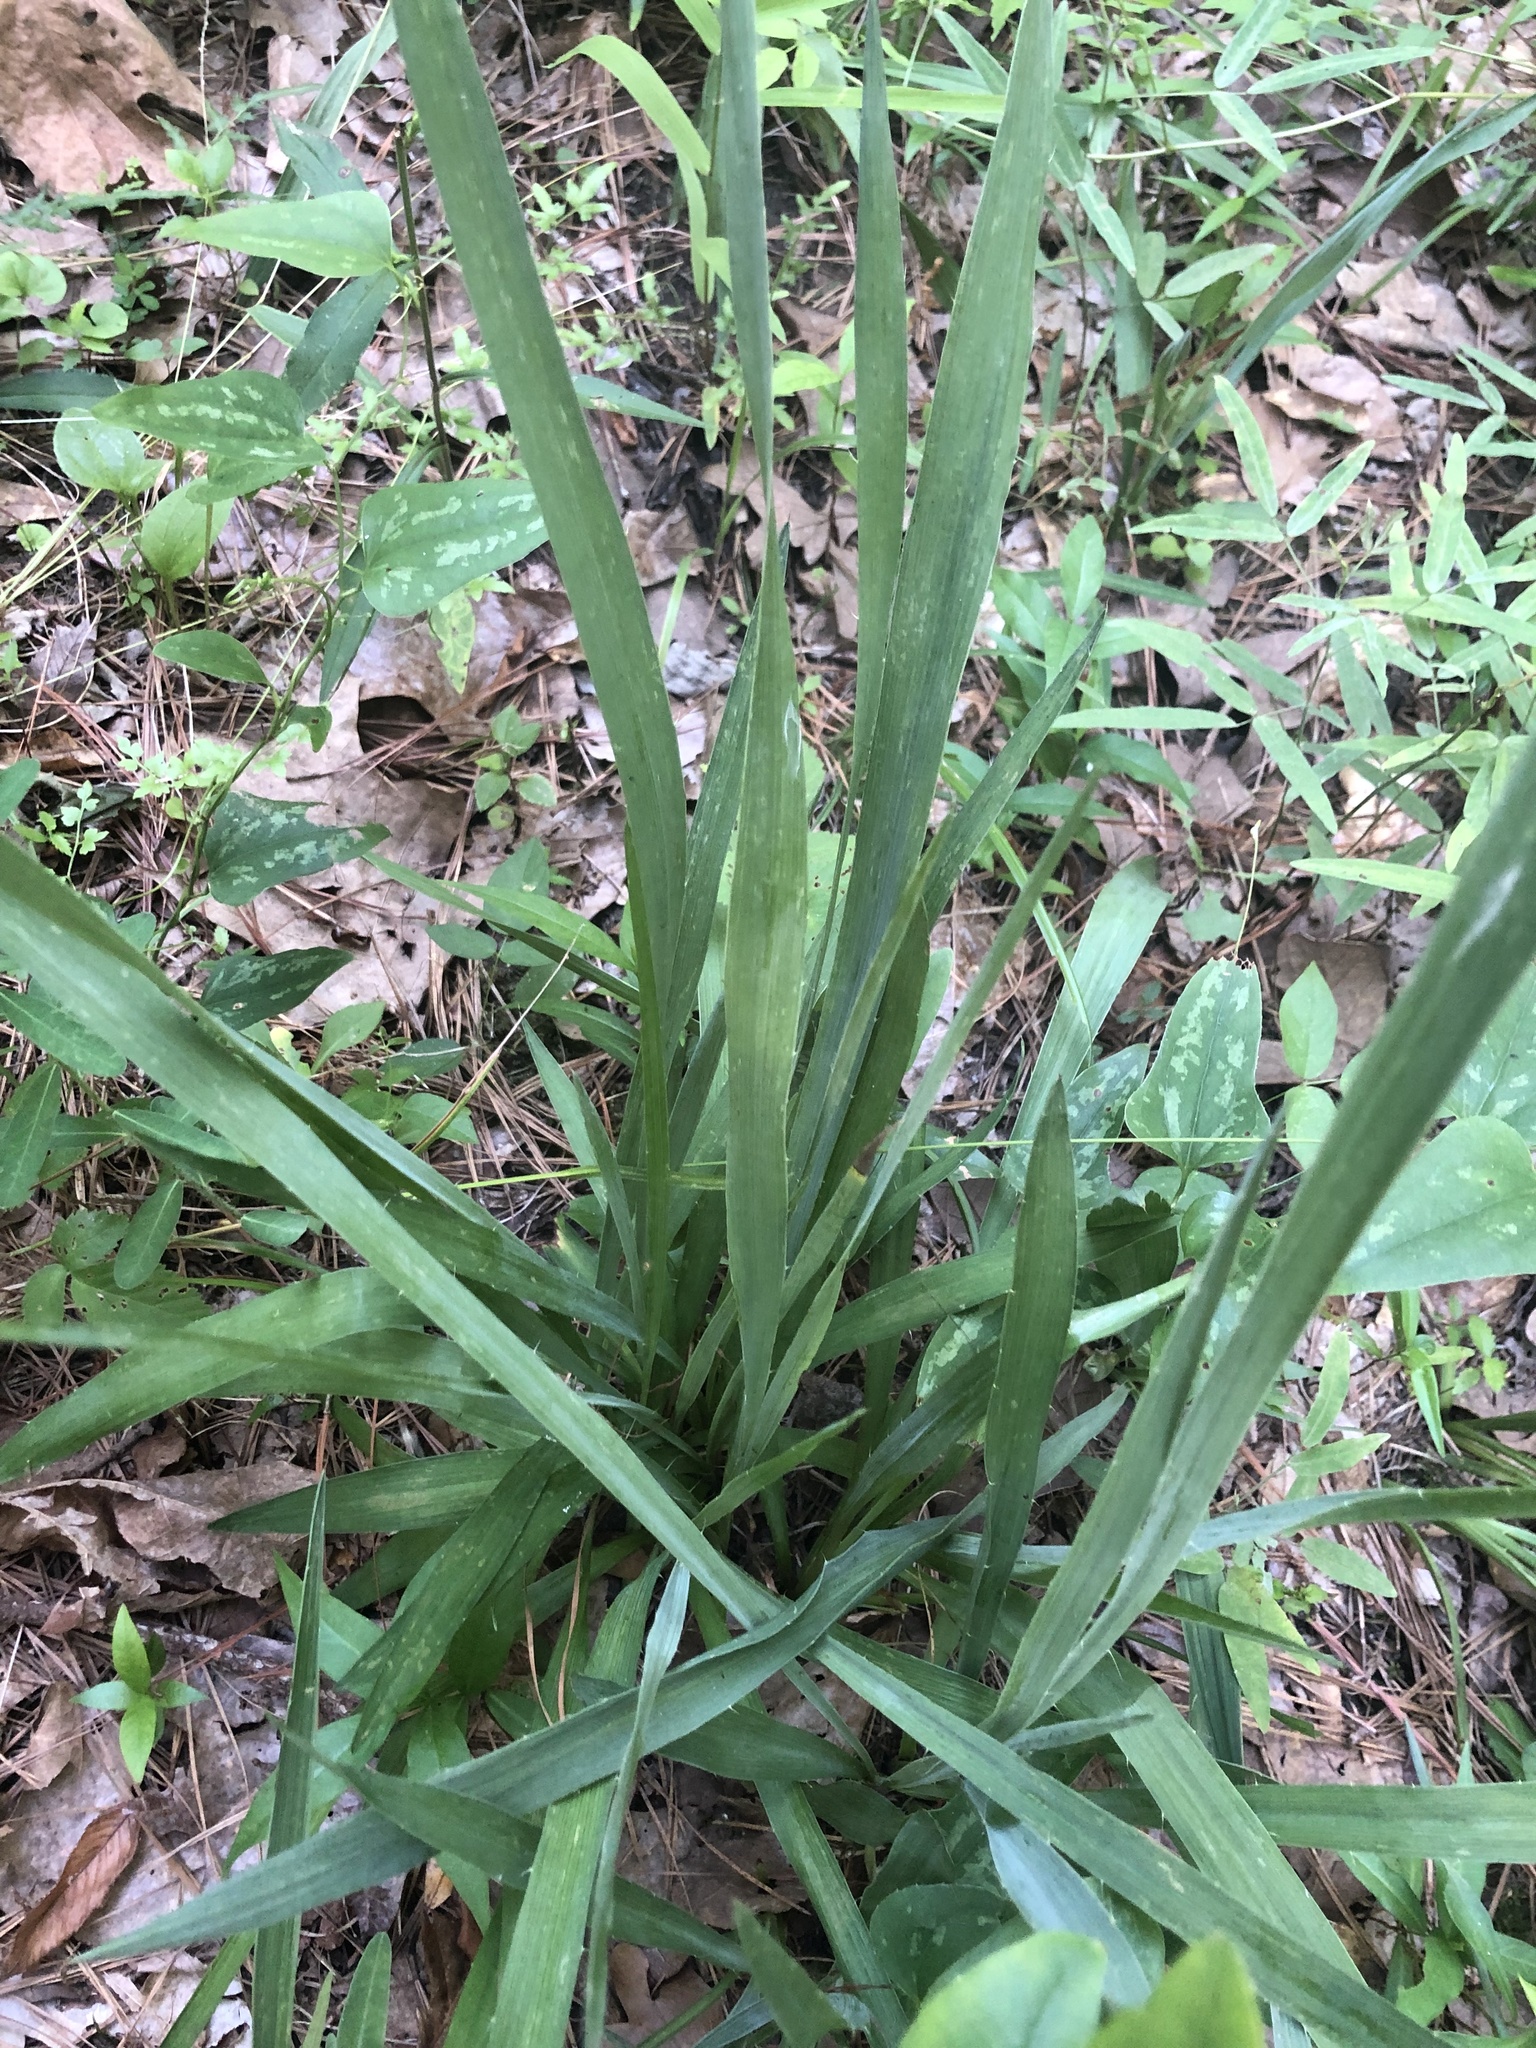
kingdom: Plantae
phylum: Tracheophyta
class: Magnoliopsida
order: Apiales
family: Apiaceae
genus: Eryngium
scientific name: Eryngium yuccifolium
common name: Button eryngo
